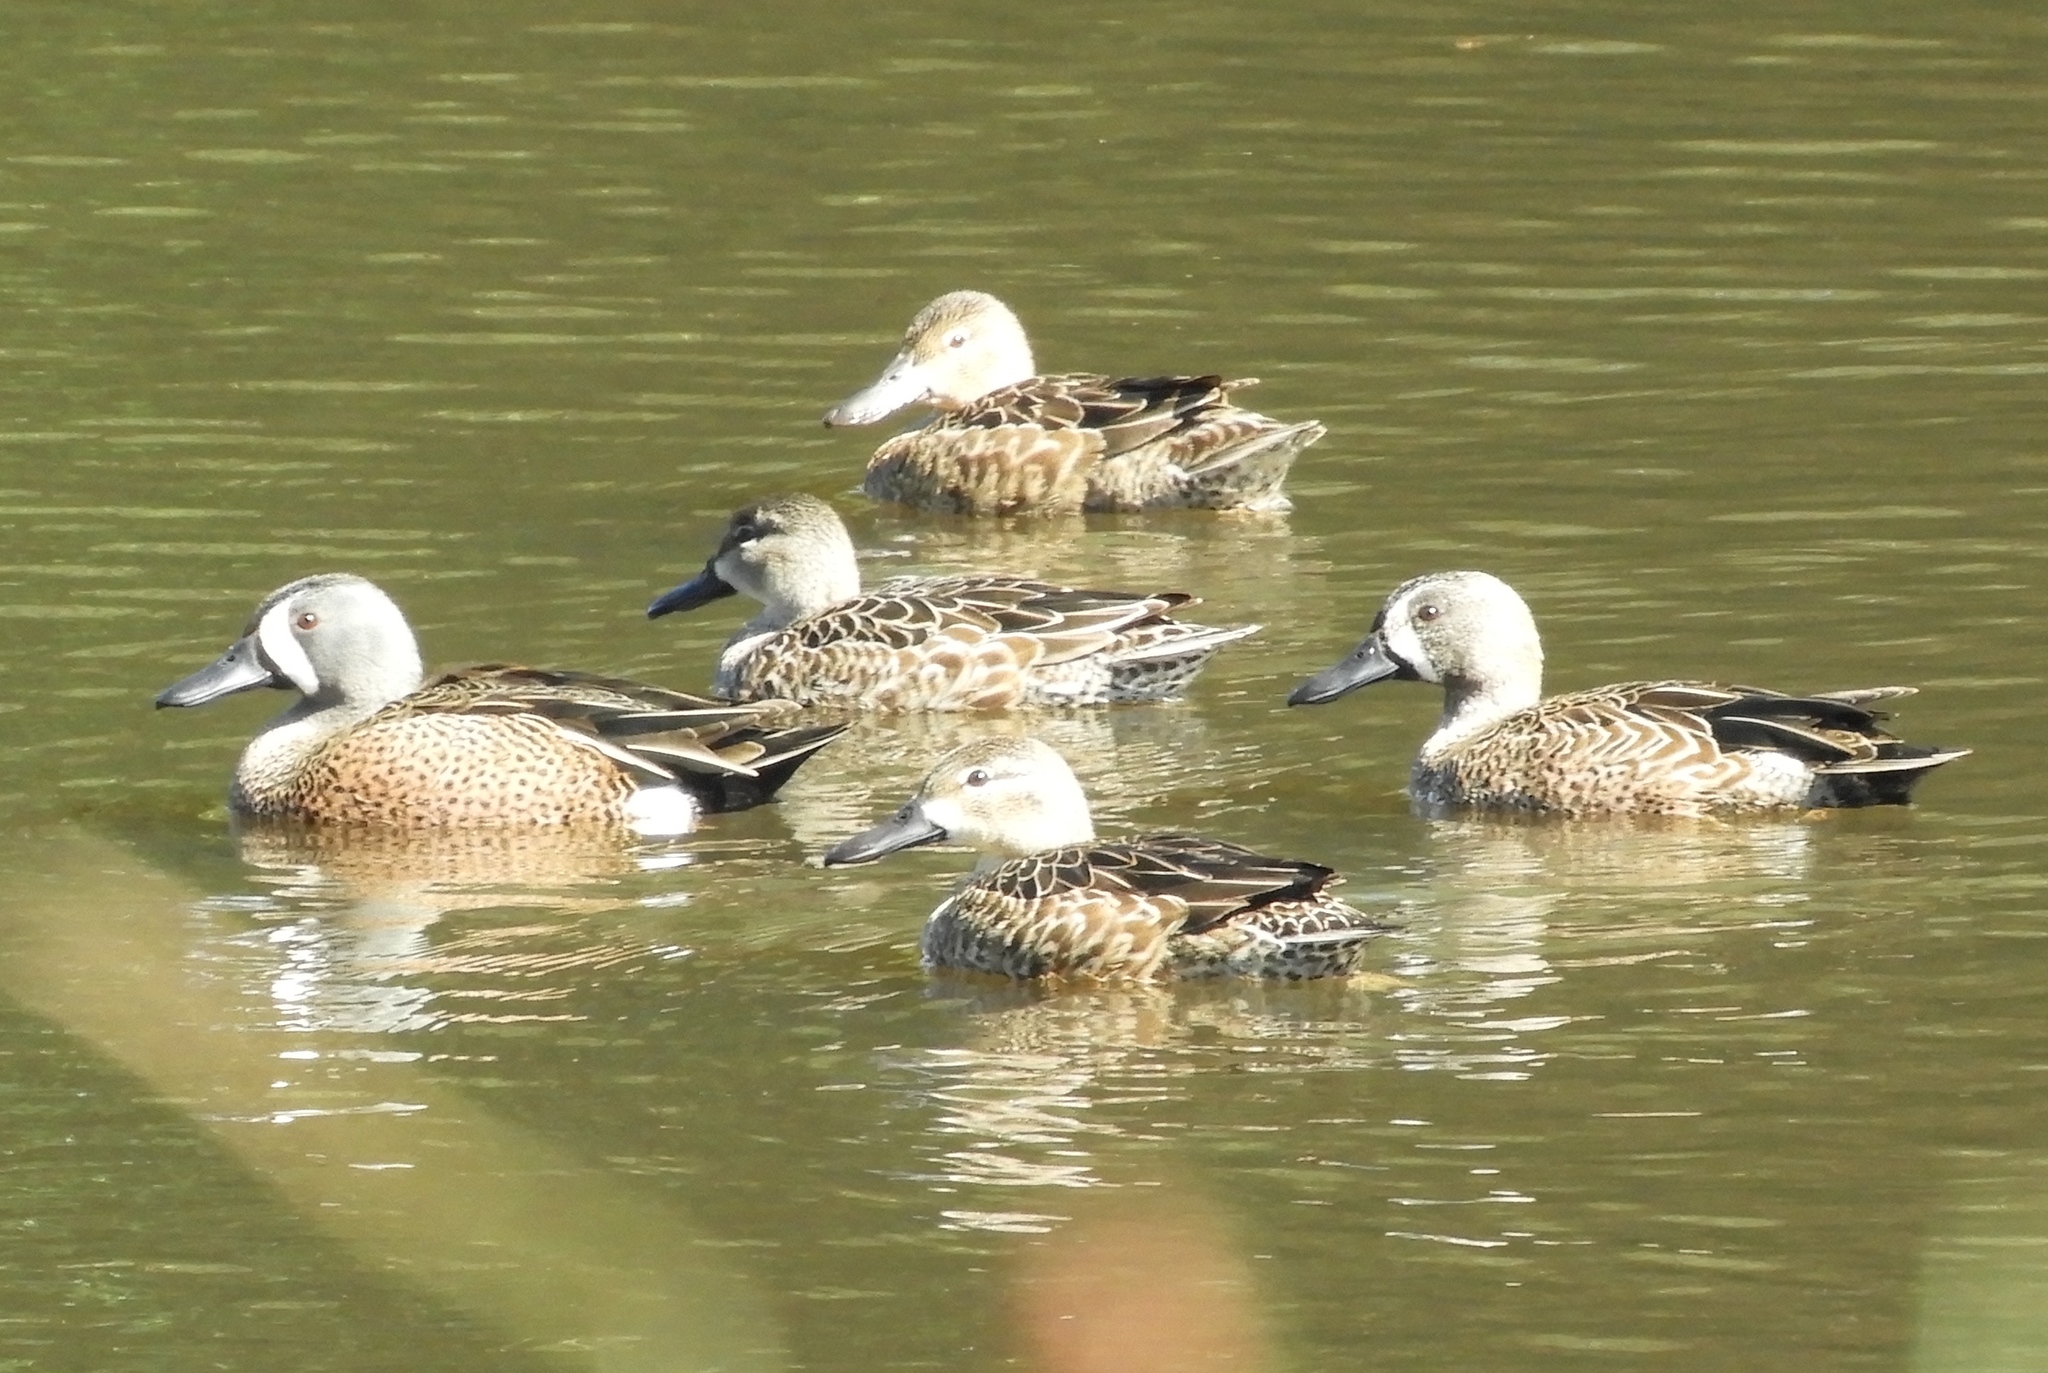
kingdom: Animalia
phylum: Chordata
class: Aves
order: Anseriformes
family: Anatidae
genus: Spatula
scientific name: Spatula discors
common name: Blue-winged teal
